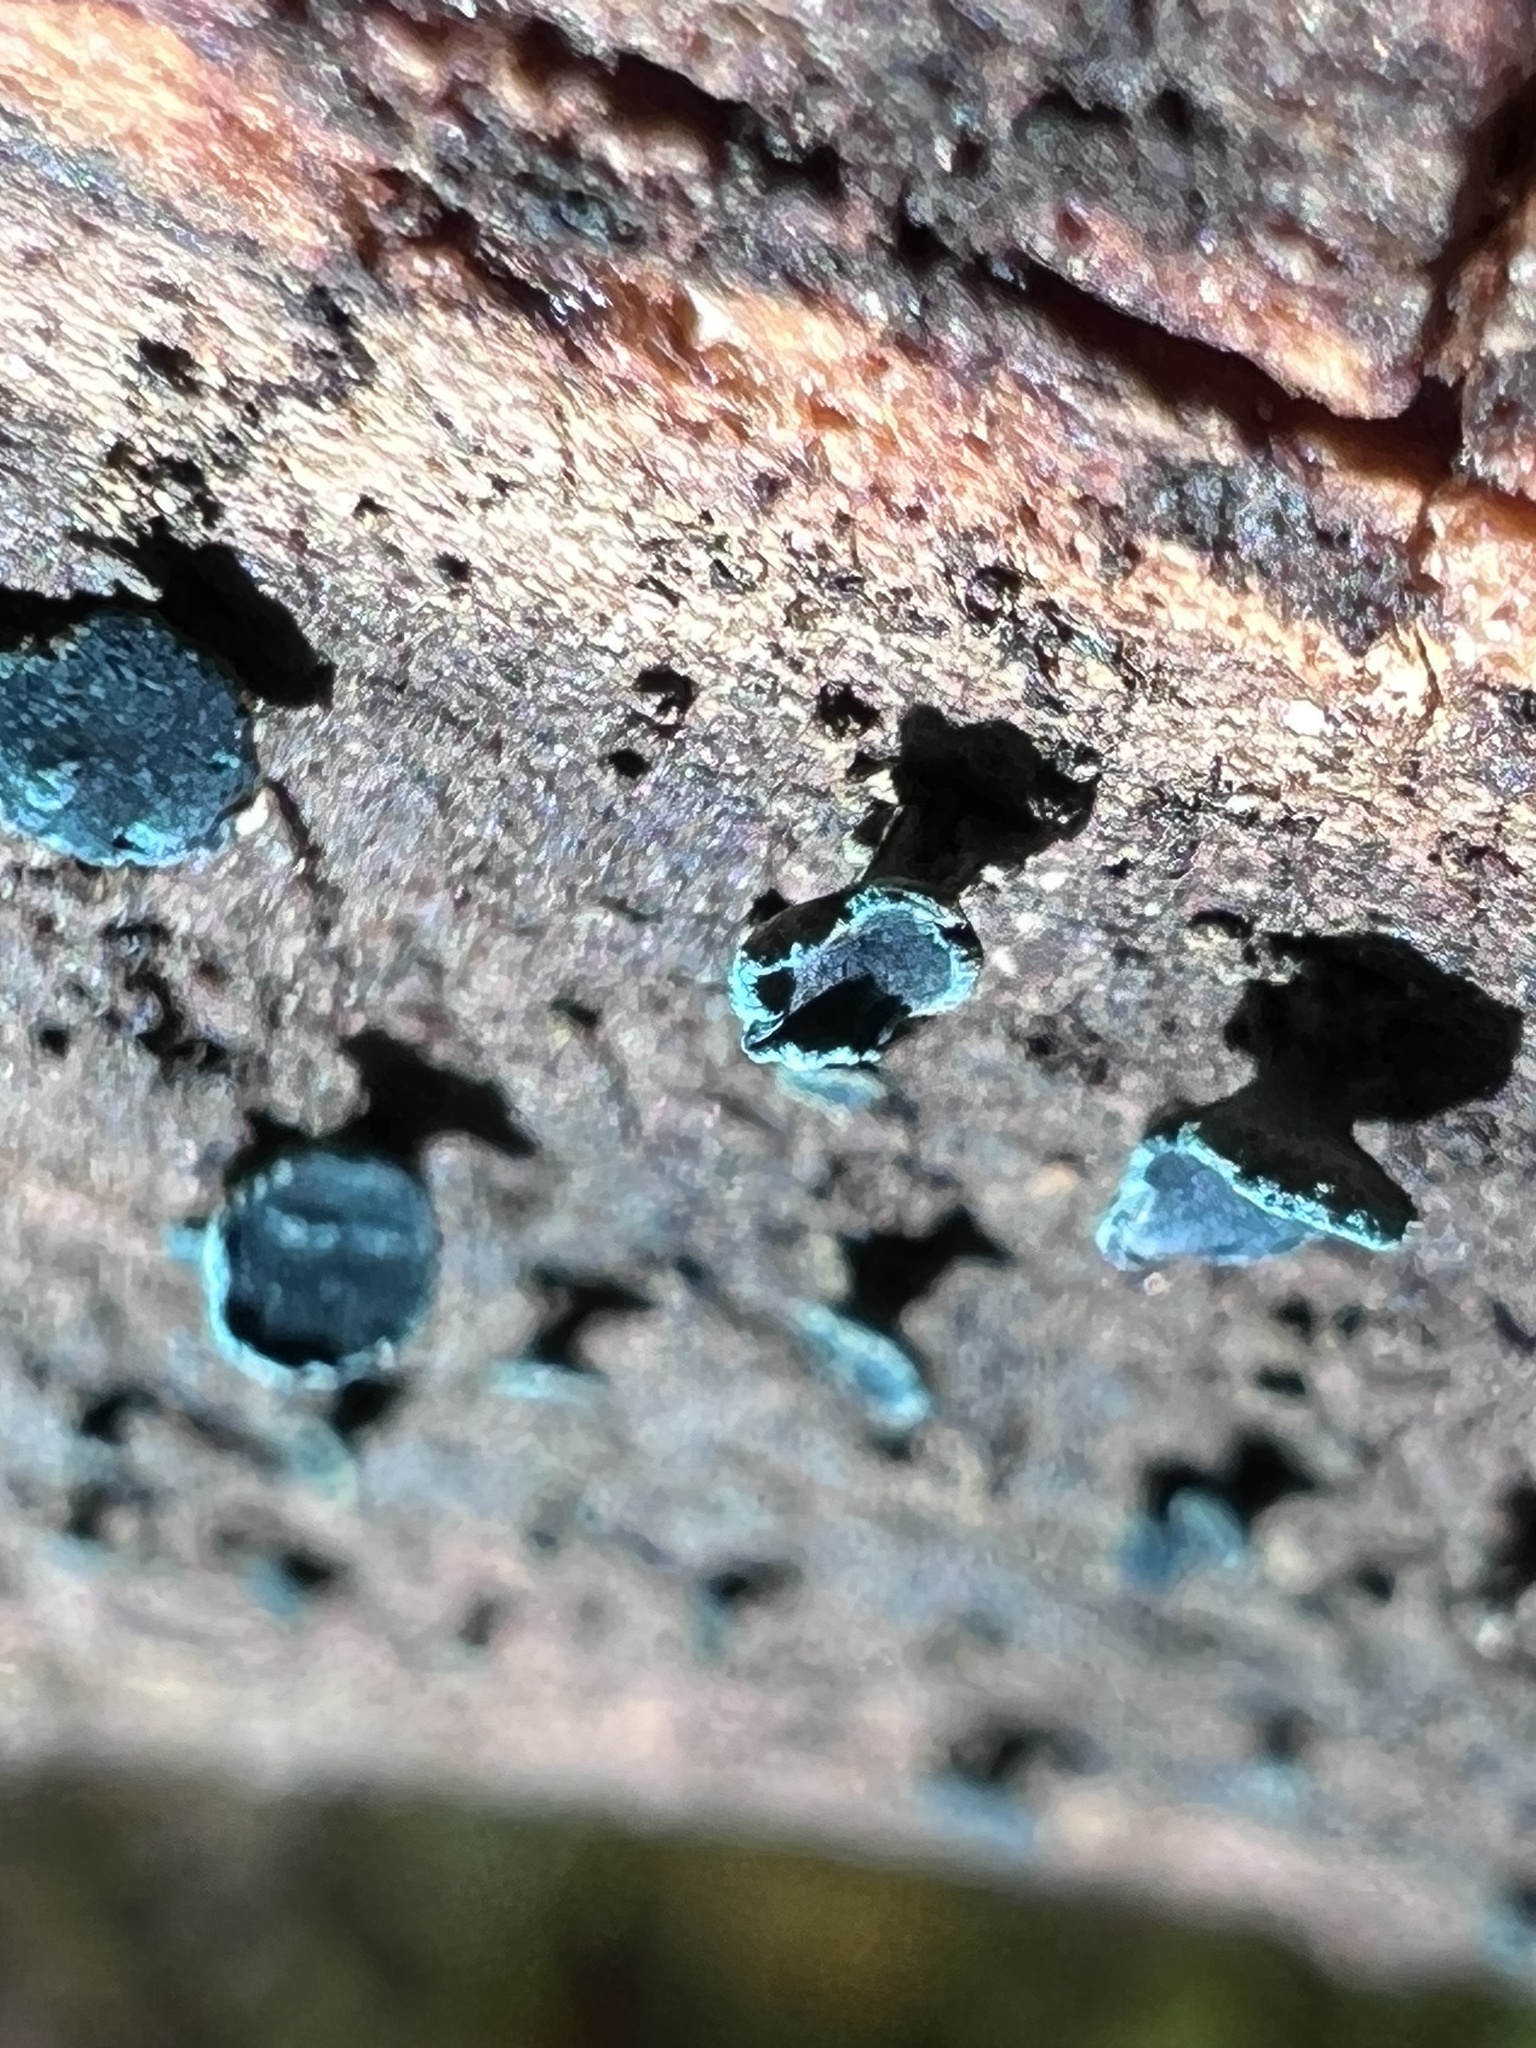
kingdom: Fungi
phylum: Ascomycota
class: Leotiomycetes
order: Helotiales
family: Chlorociboriaceae
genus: Chlorociboria
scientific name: Chlorociboria aeruginascens
